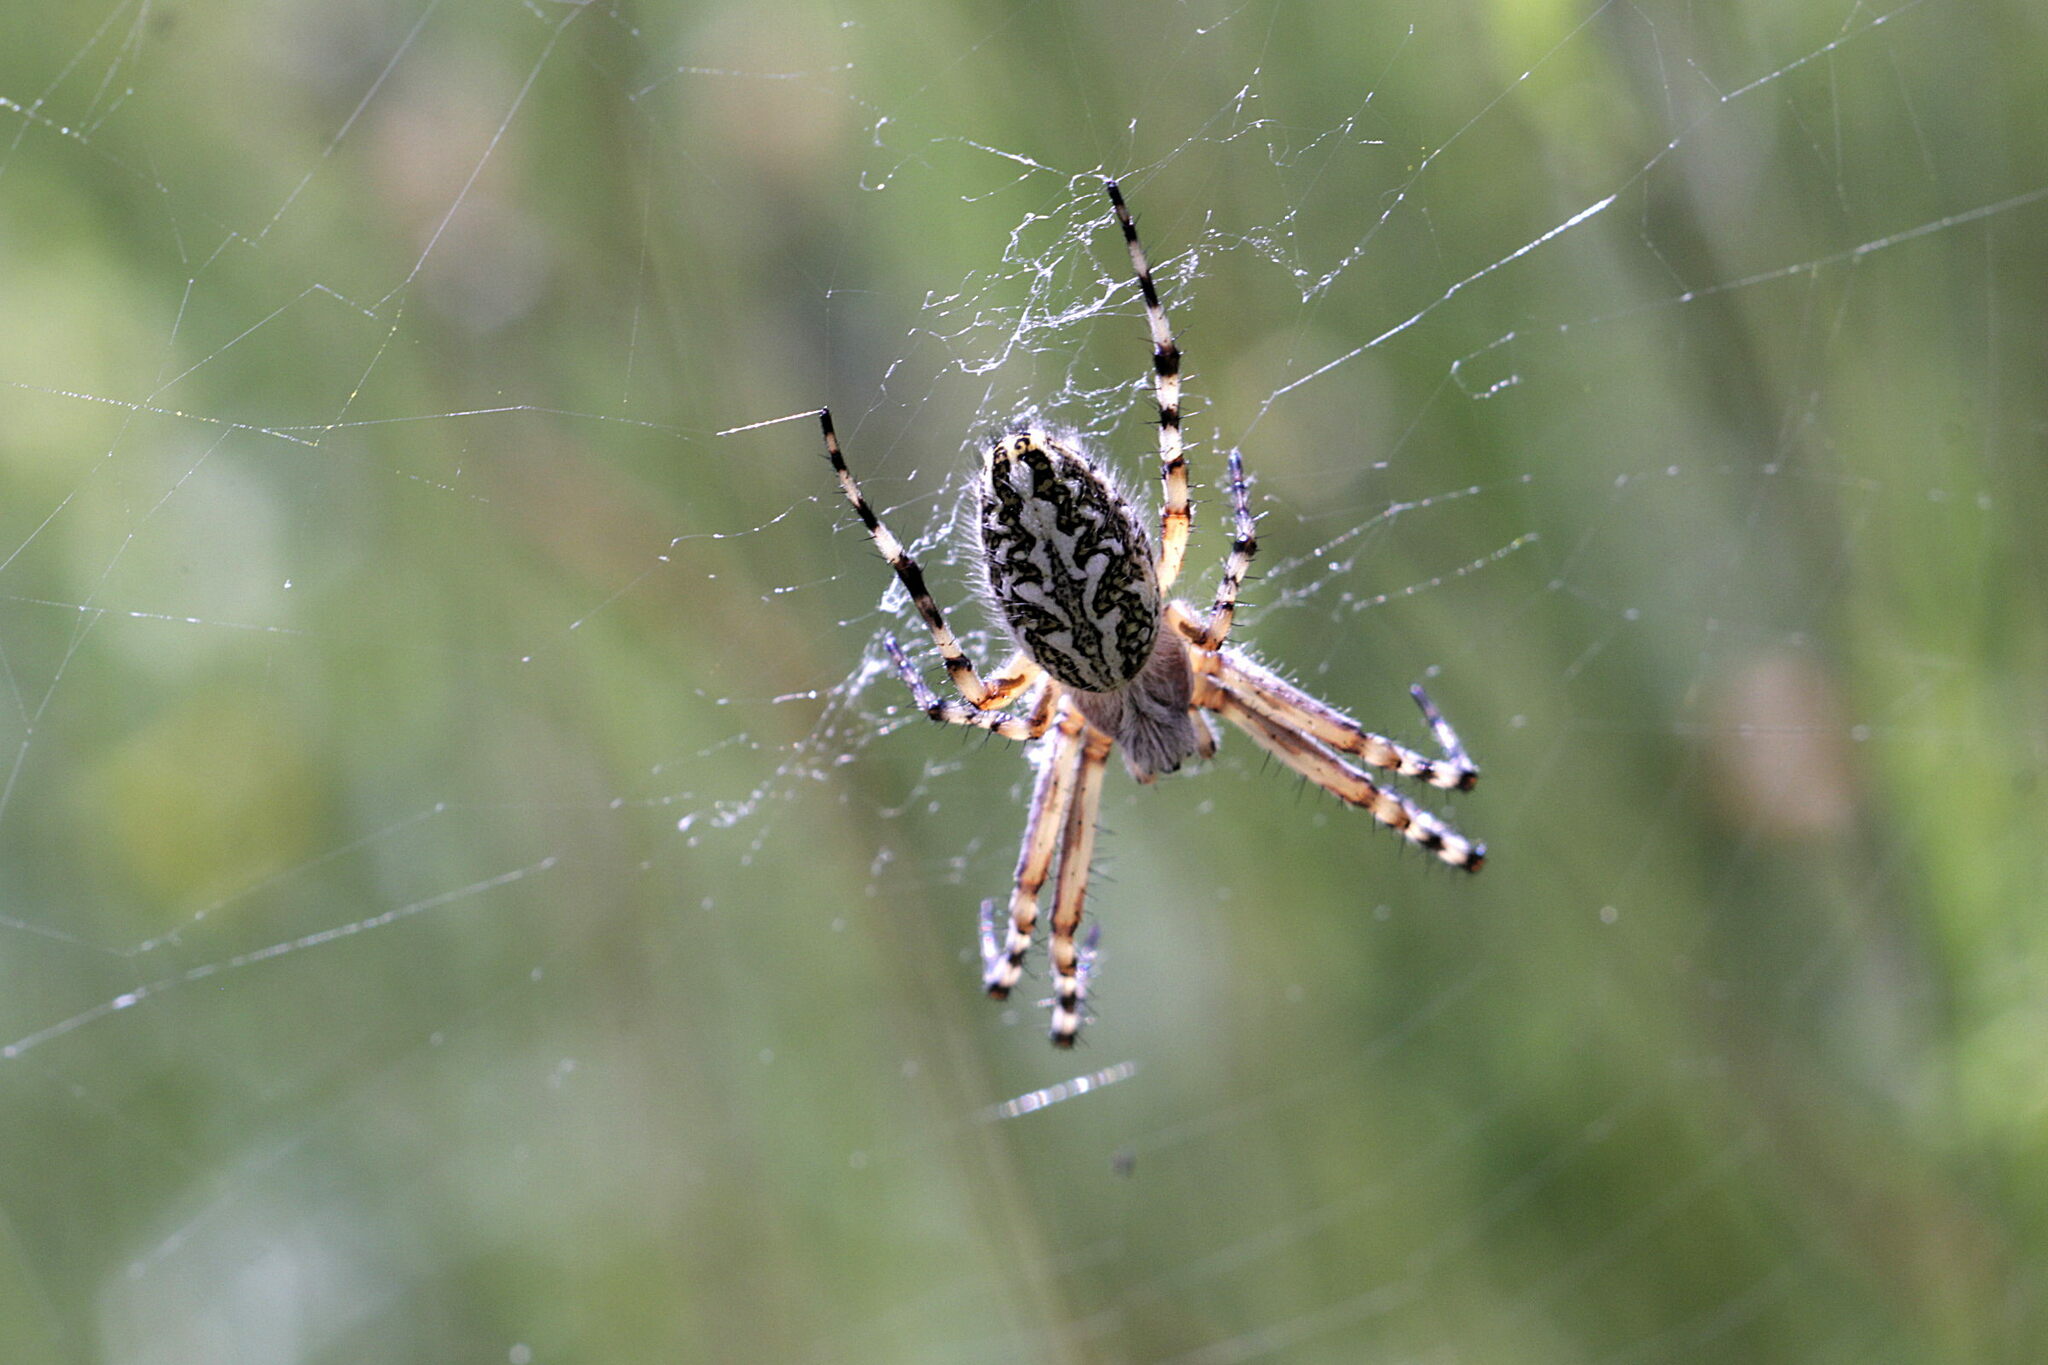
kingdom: Animalia
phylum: Arthropoda
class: Arachnida
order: Araneae
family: Araneidae
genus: Aculepeira
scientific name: Aculepeira ceropegia
